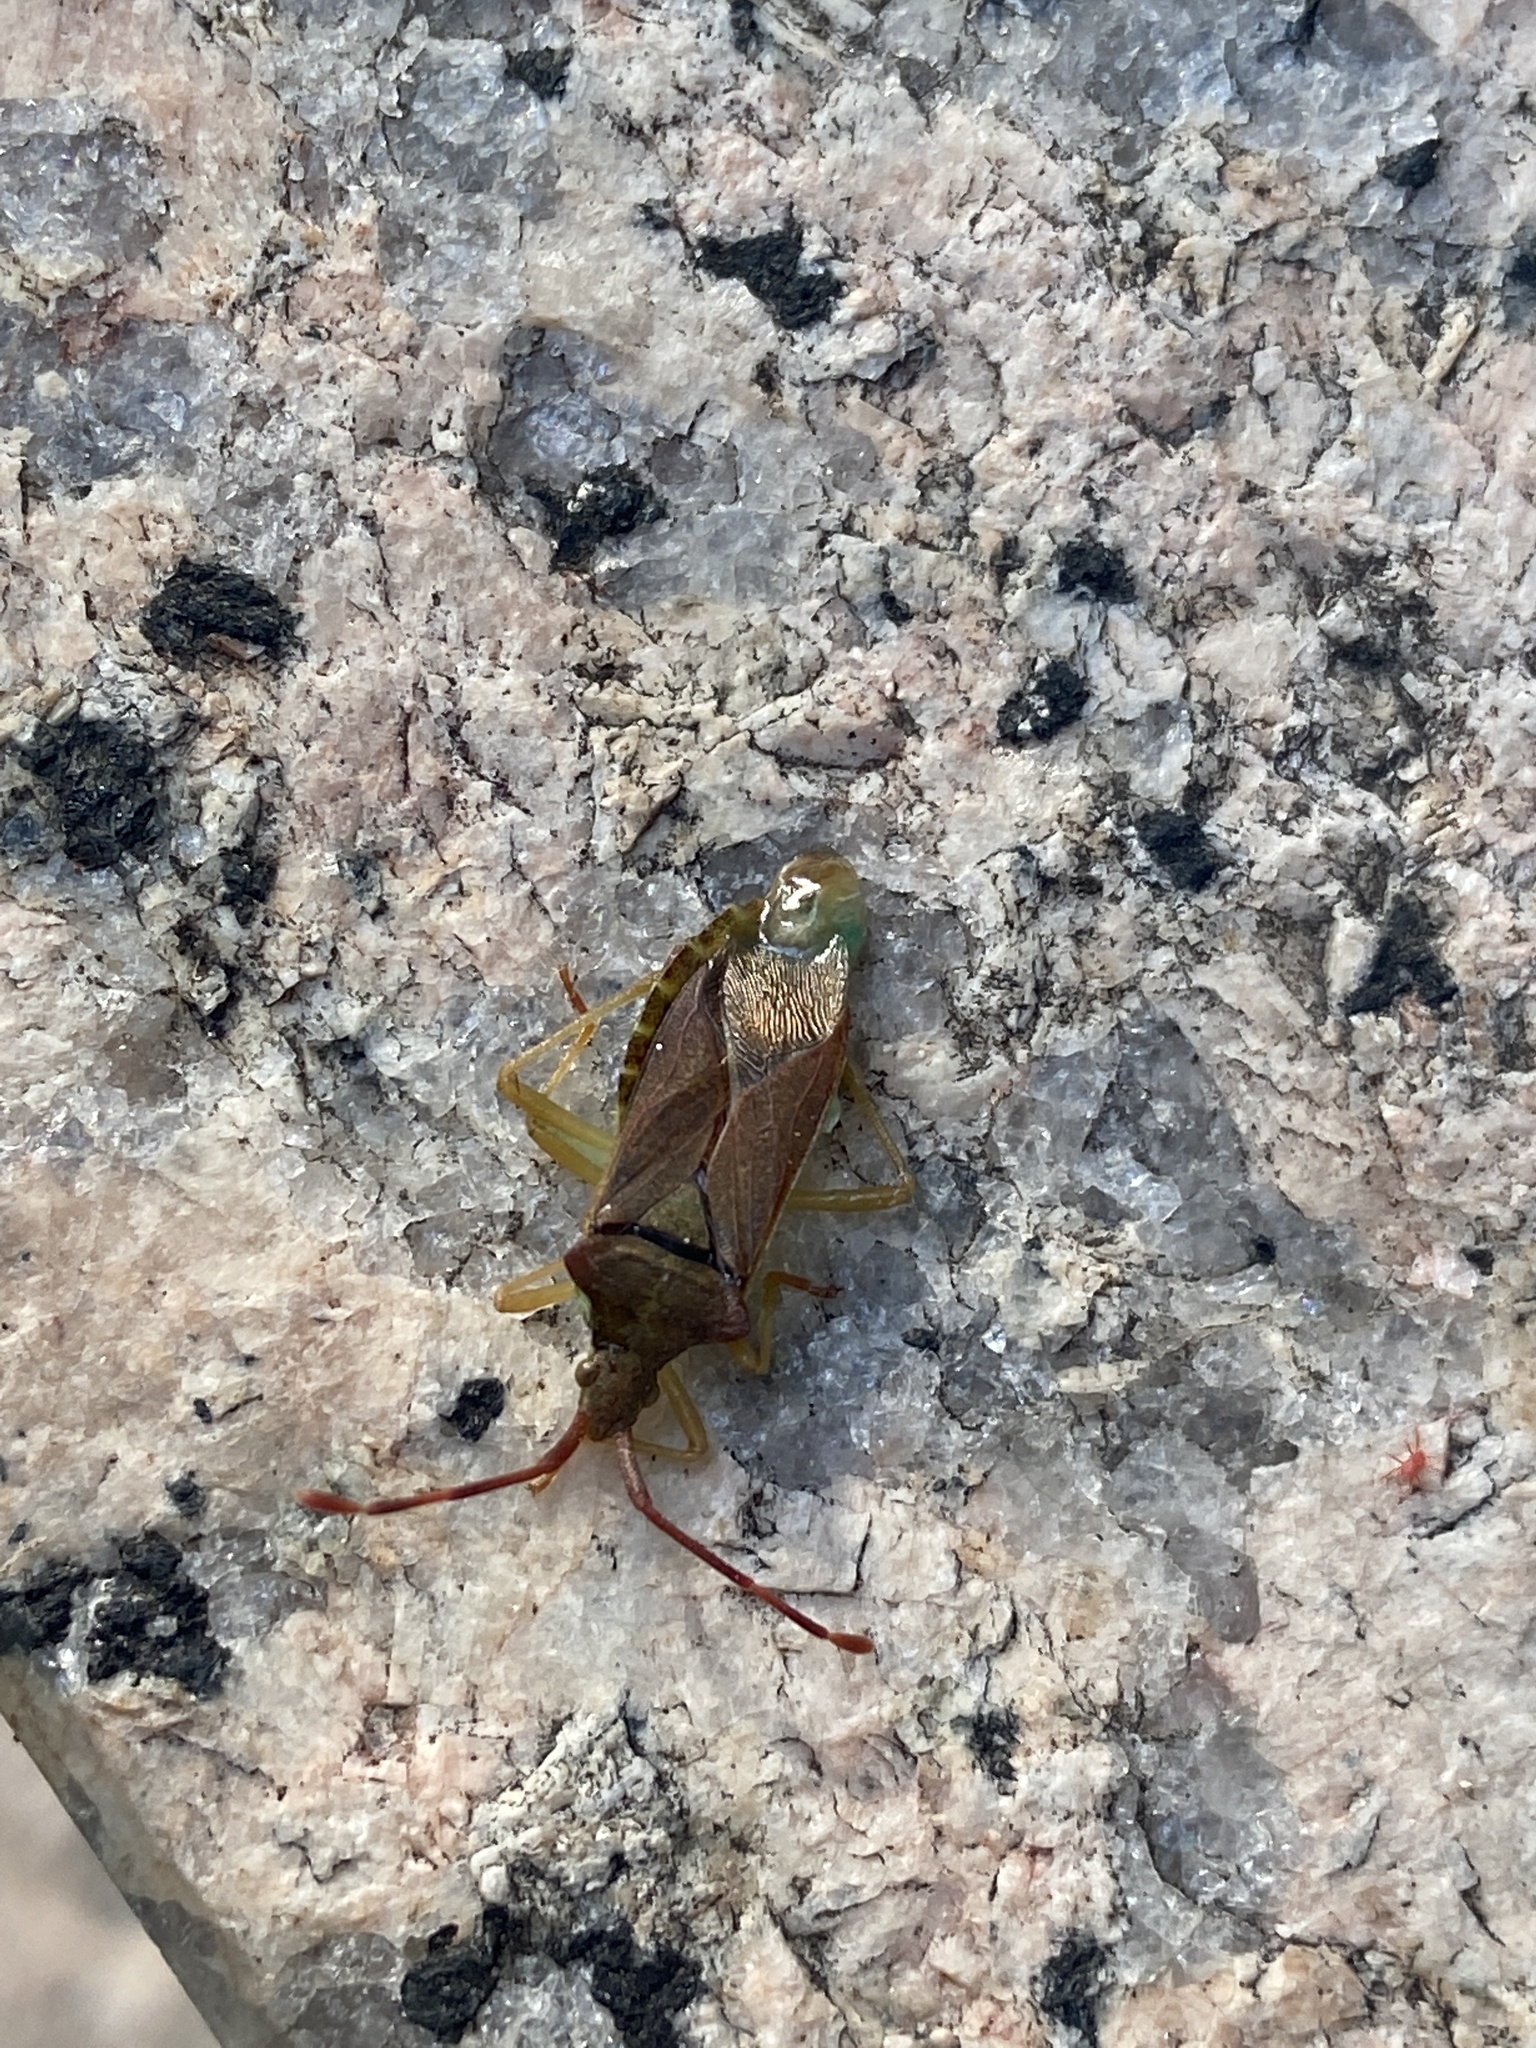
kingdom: Animalia
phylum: Arthropoda
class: Insecta
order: Hemiptera
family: Coreidae
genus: Gonocerus
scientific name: Gonocerus acuteangulatus
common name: Box bug
